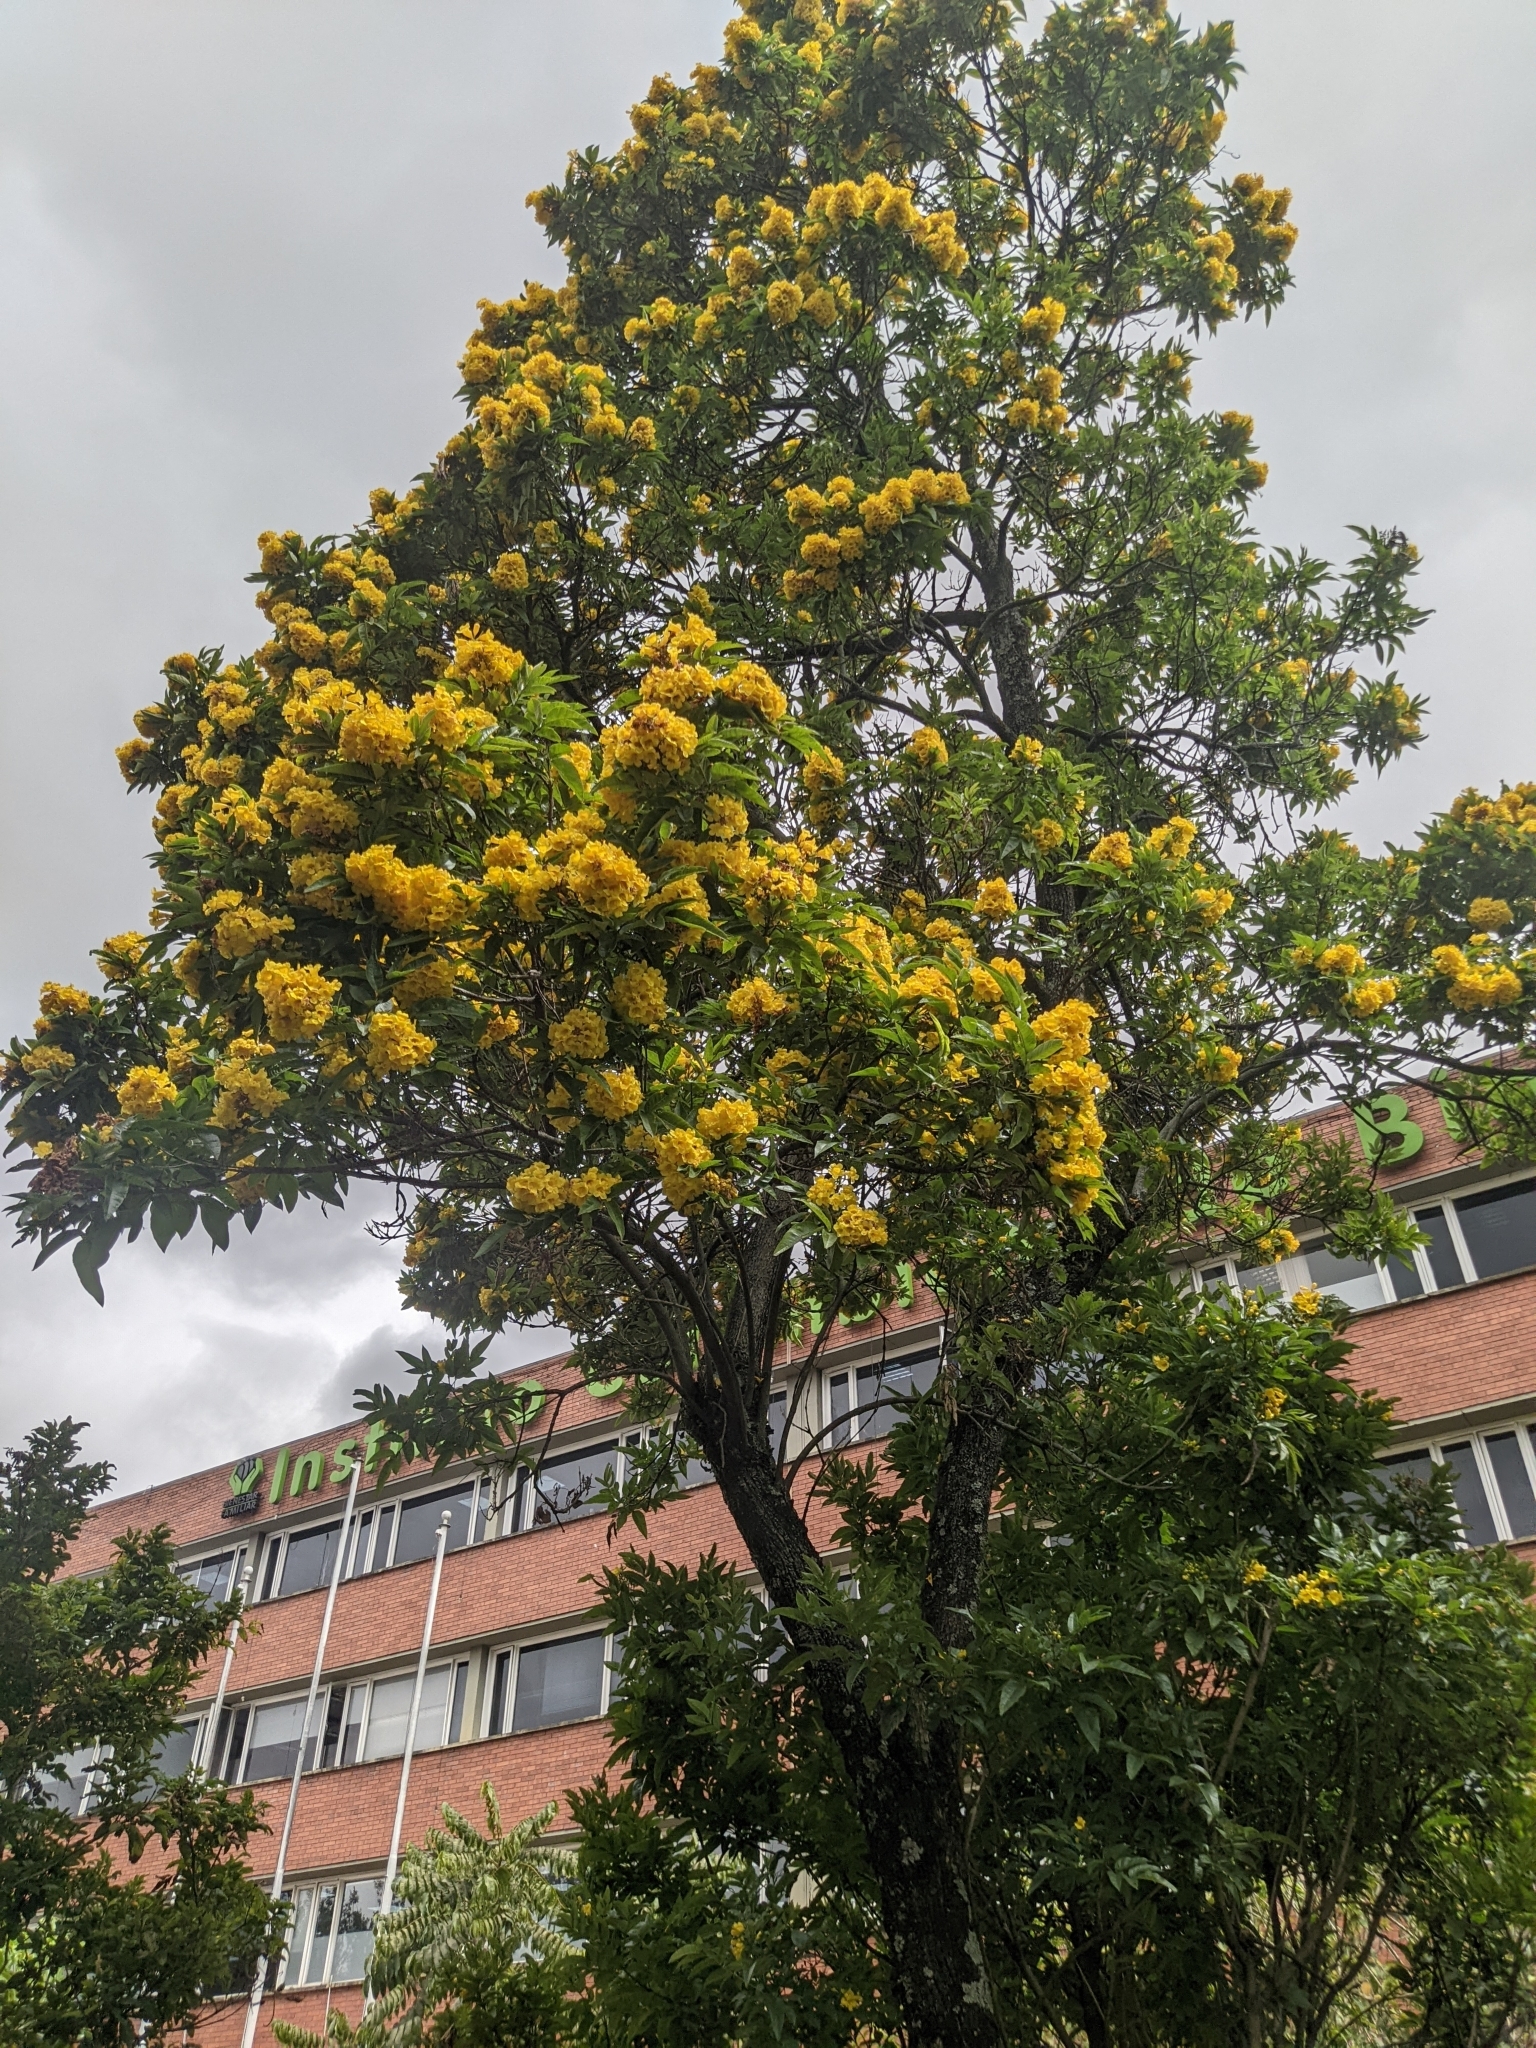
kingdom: Plantae
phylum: Tracheophyta
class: Magnoliopsida
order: Lamiales
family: Bignoniaceae
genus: Tecoma
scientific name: Tecoma stans
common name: Yellow trumpetbush
